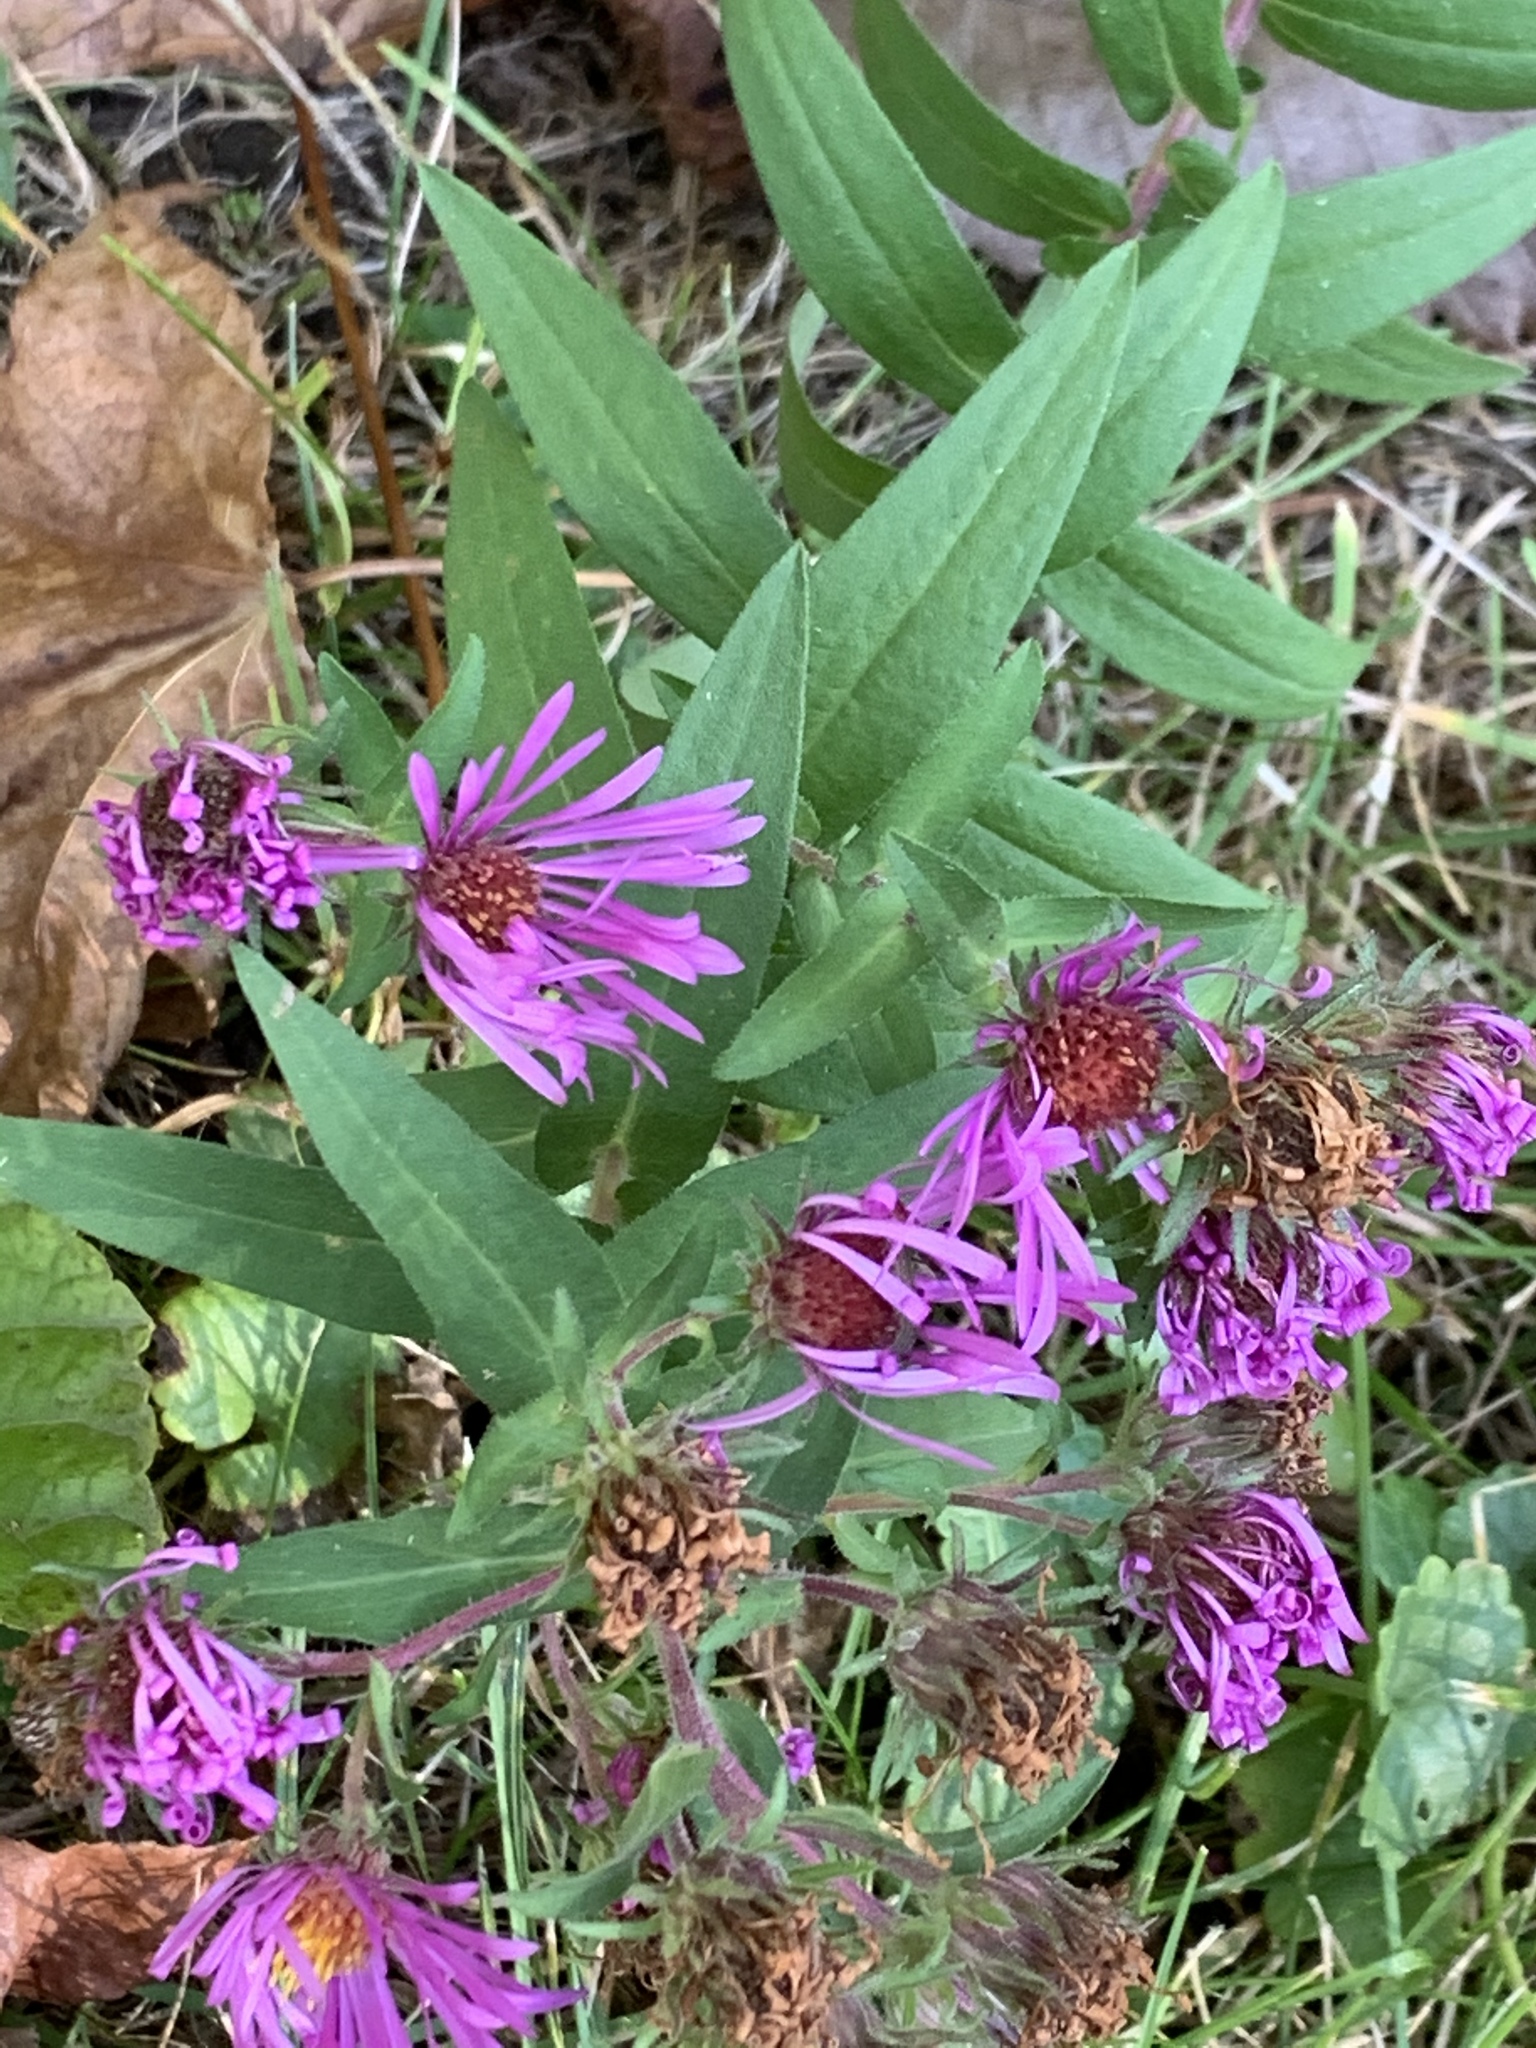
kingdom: Plantae
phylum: Tracheophyta
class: Magnoliopsida
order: Asterales
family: Asteraceae
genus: Symphyotrichum
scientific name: Symphyotrichum novae-angliae
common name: Michaelmas daisy
